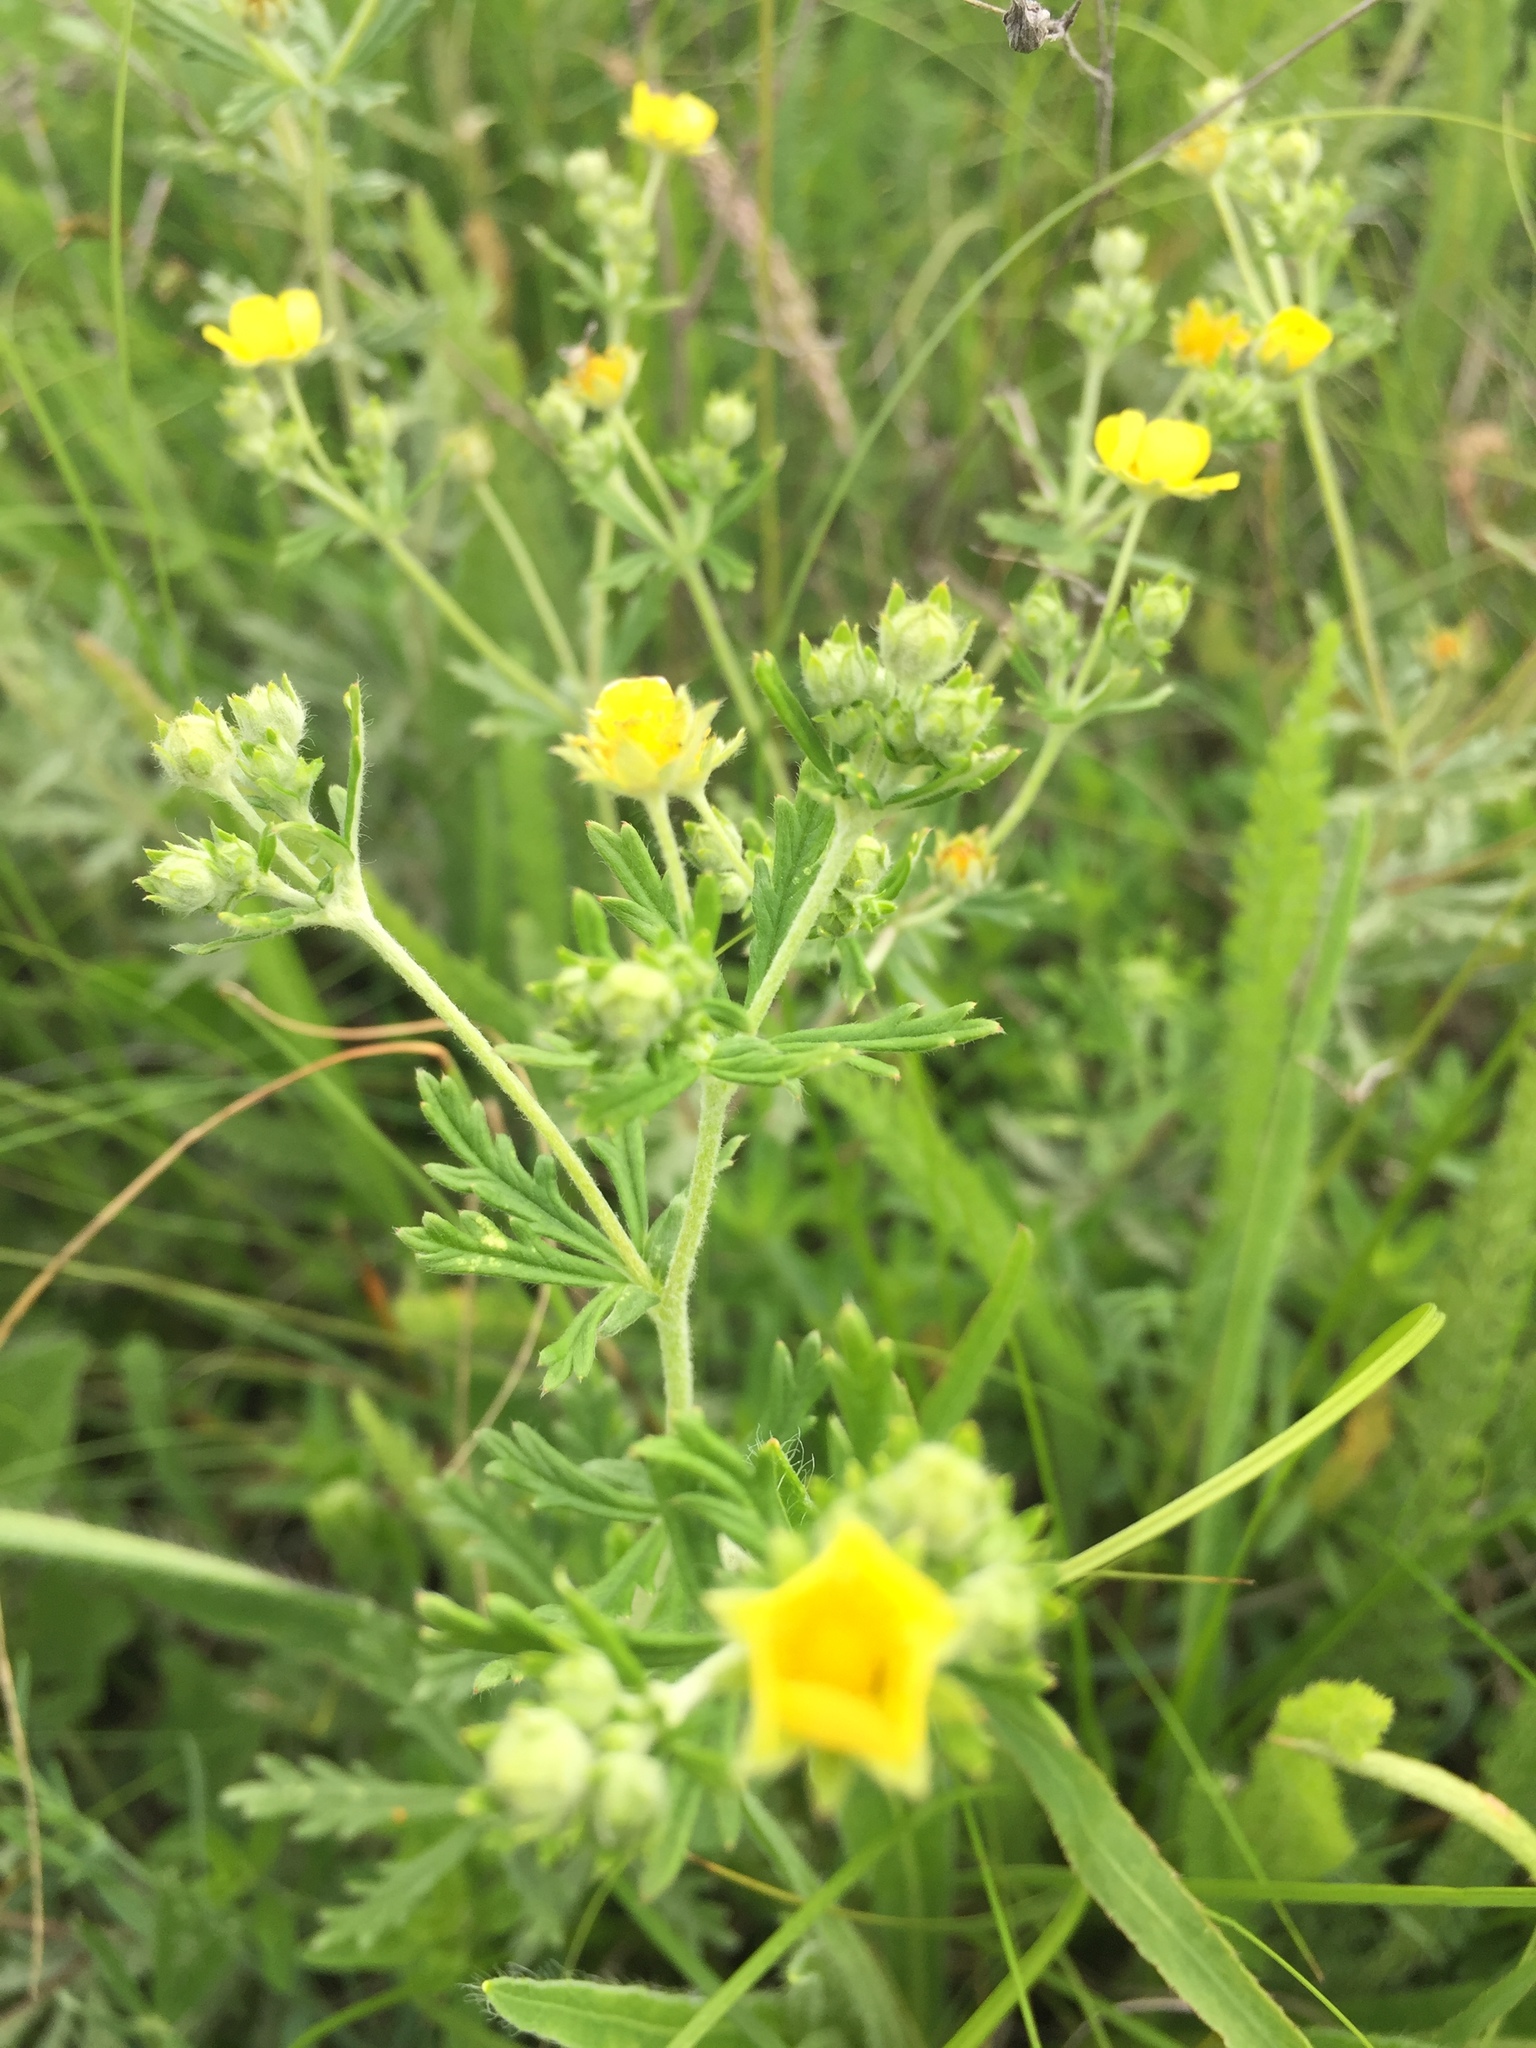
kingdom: Plantae
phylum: Tracheophyta
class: Magnoliopsida
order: Rosales
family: Rosaceae
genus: Potentilla
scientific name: Potentilla argentea
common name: Hoary cinquefoil
